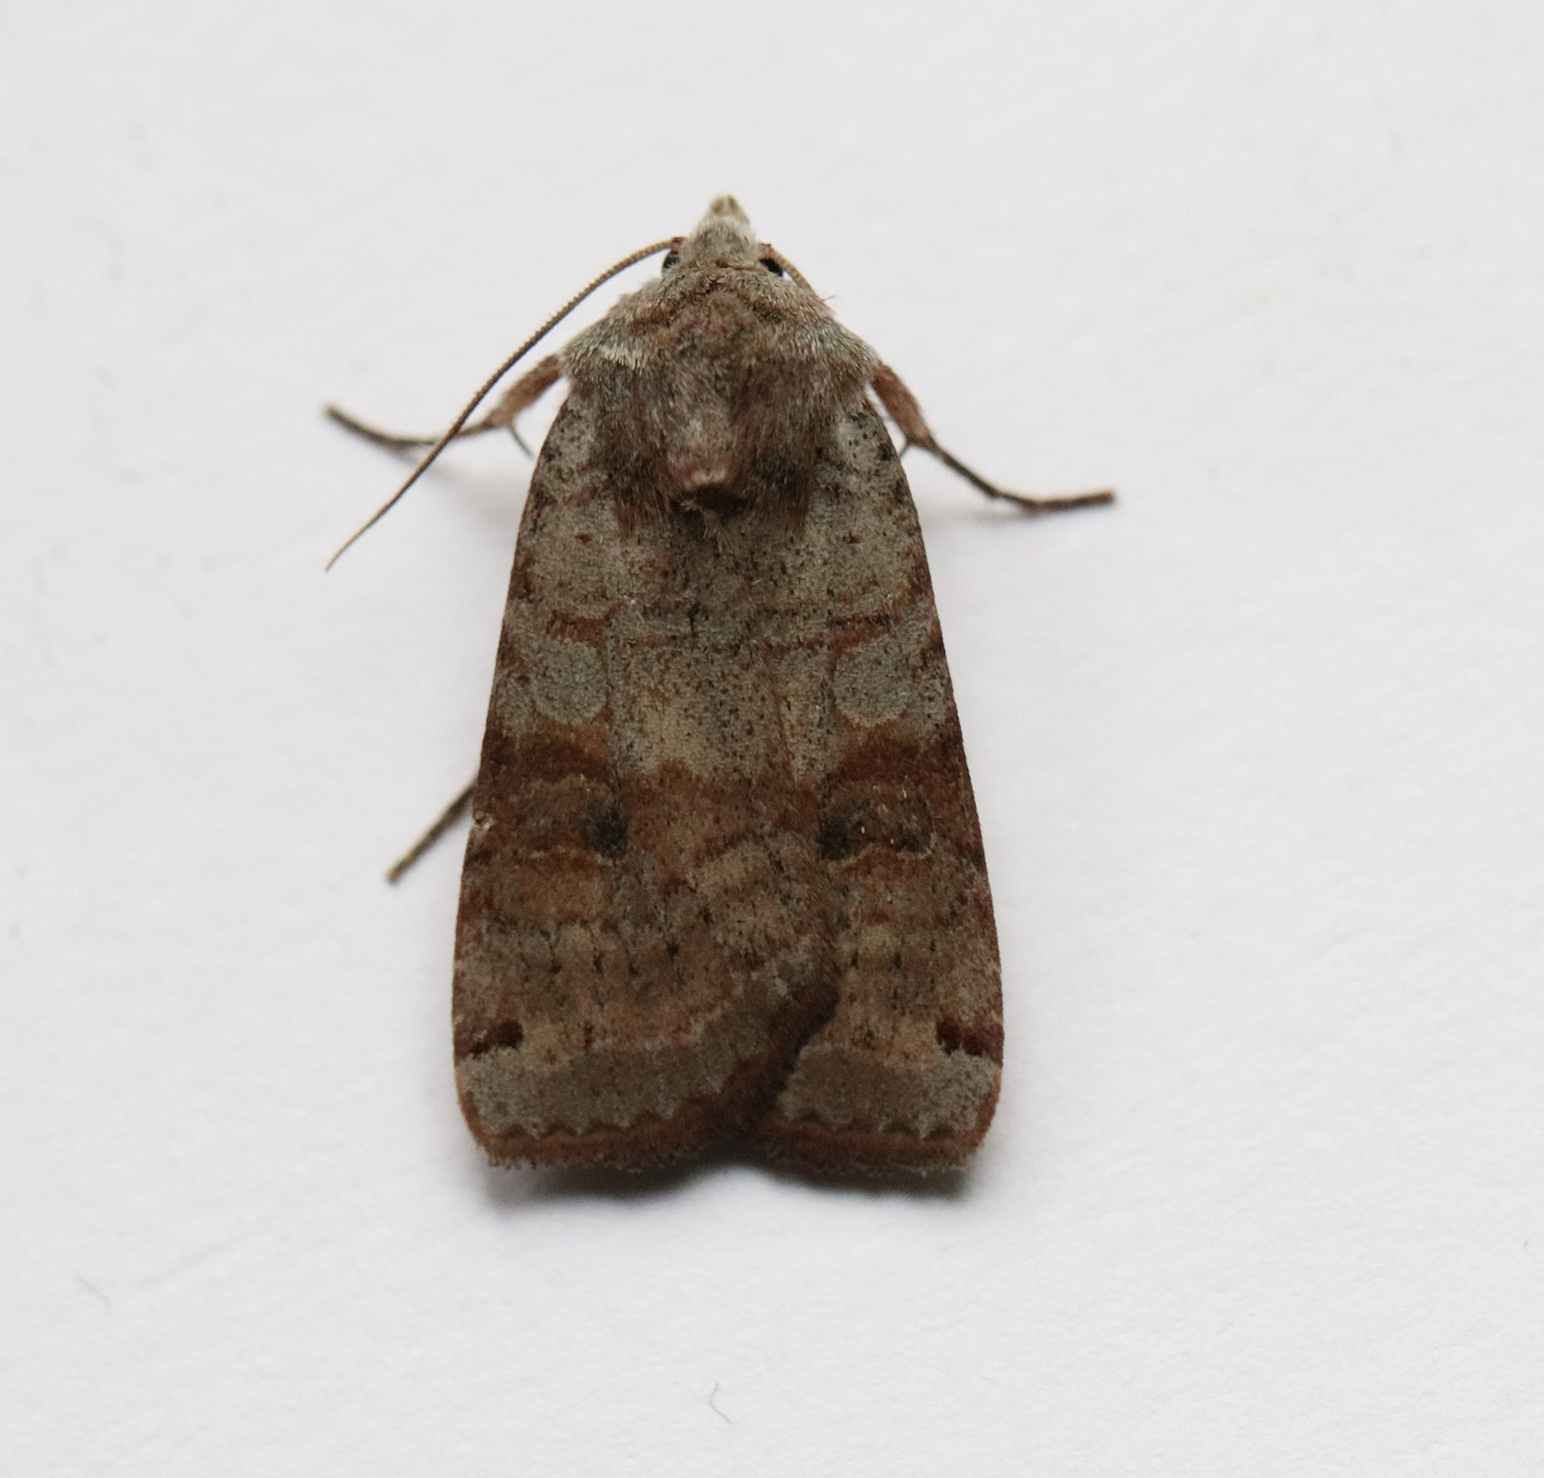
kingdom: Animalia
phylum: Arthropoda
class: Insecta
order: Lepidoptera
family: Noctuidae
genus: Xestia
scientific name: Xestia smithii
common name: Smith's dart
